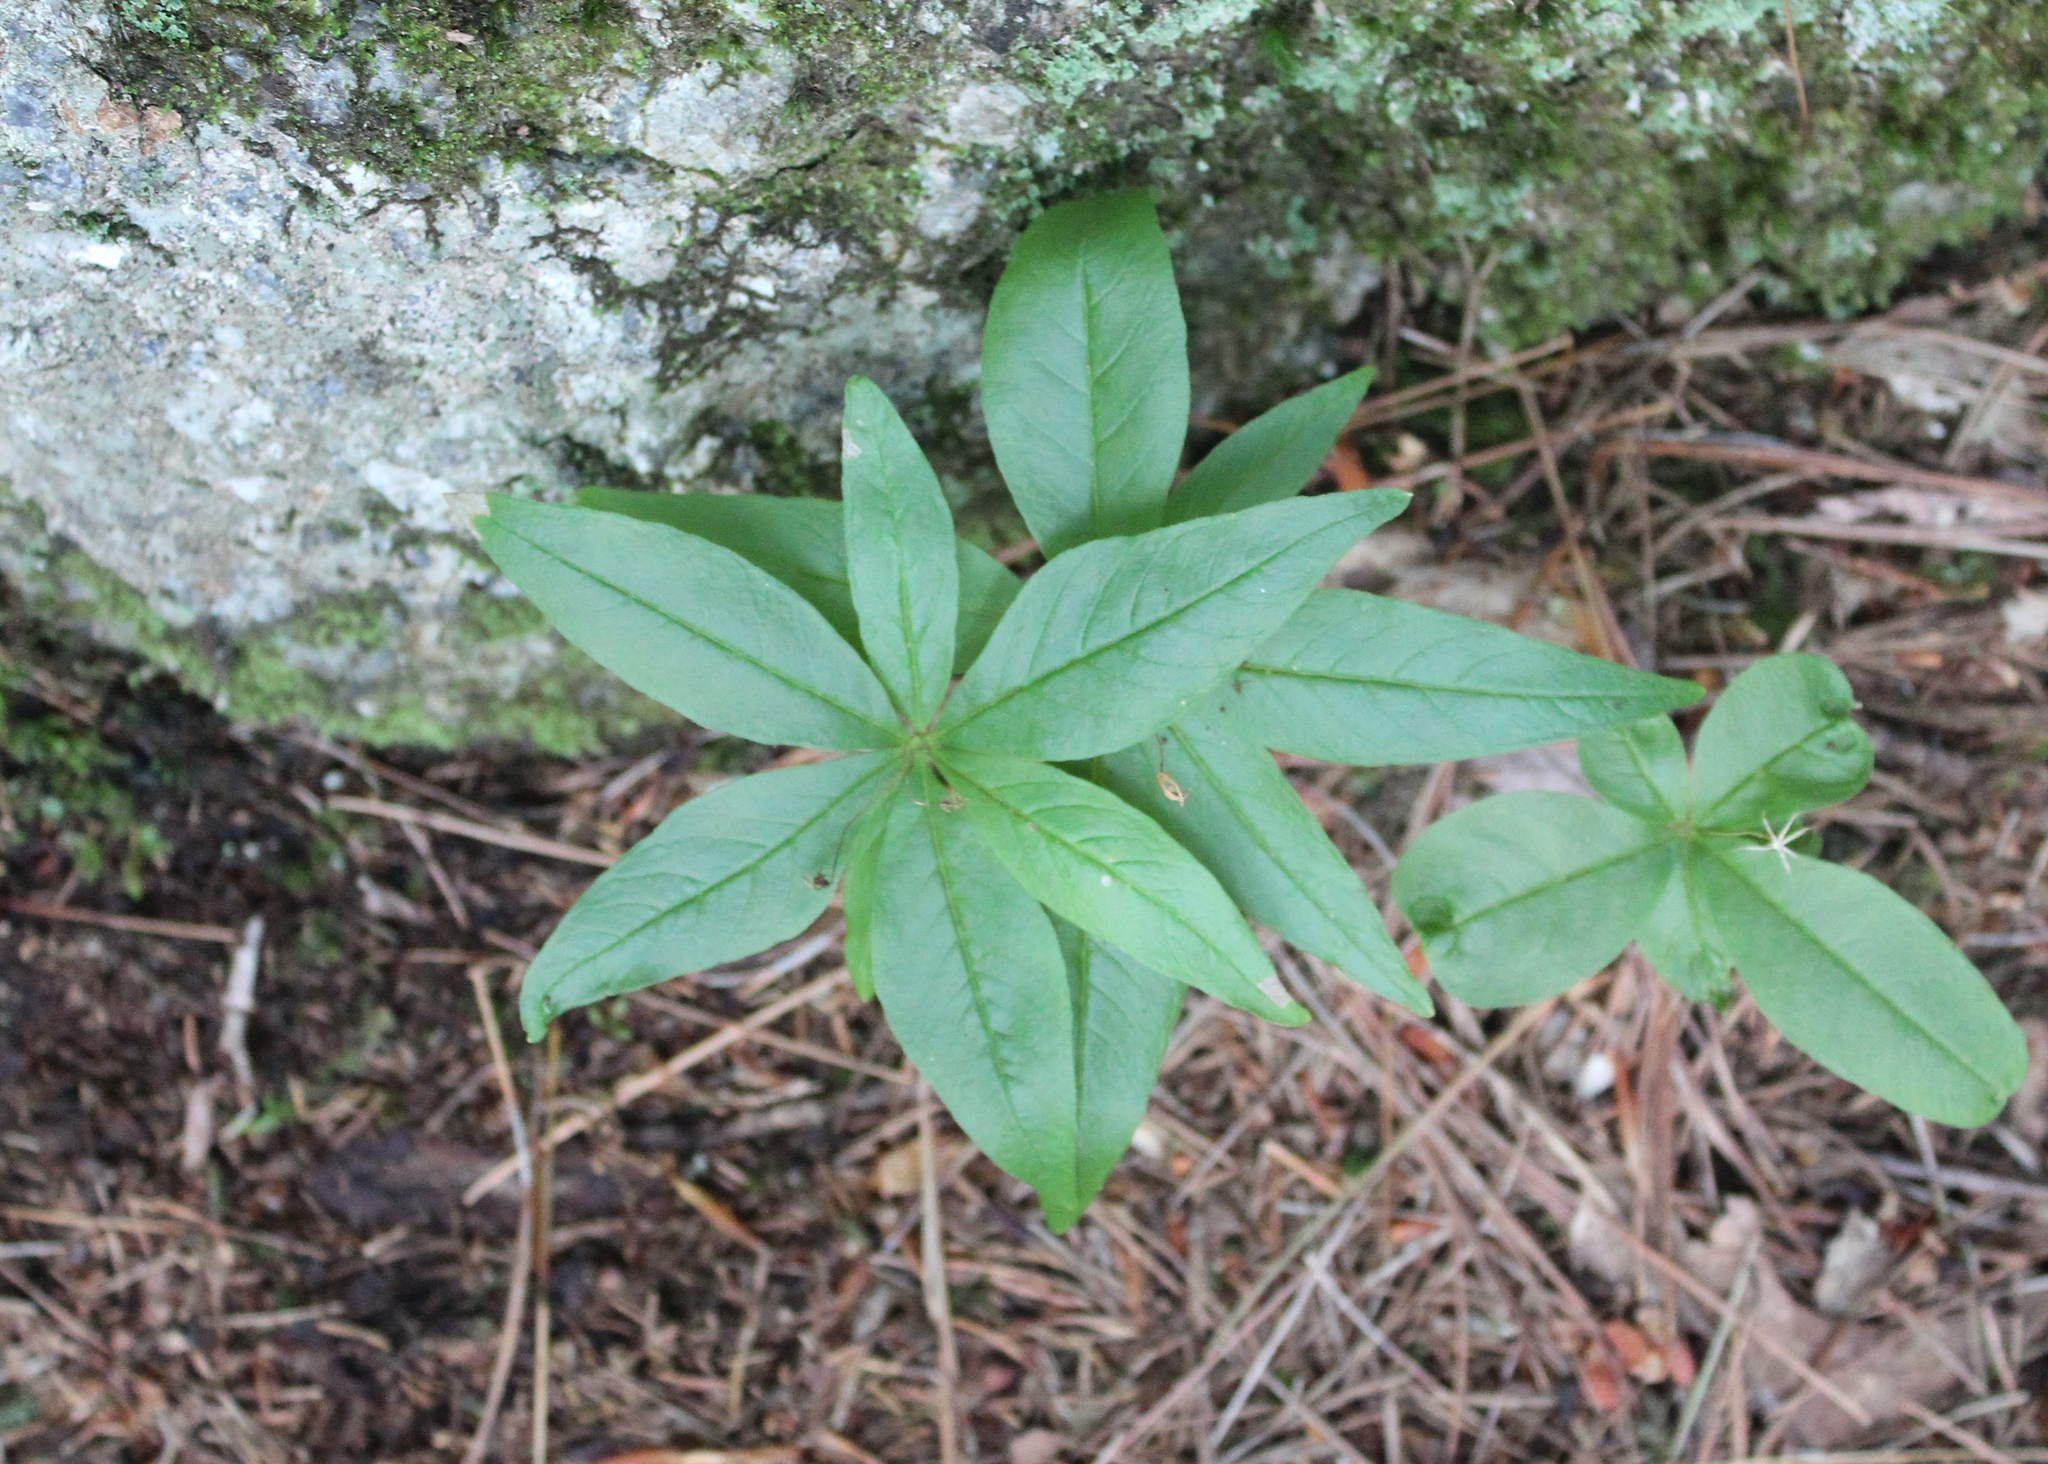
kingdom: Plantae
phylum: Tracheophyta
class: Magnoliopsida
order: Ericales
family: Primulaceae
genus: Lysimachia
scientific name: Lysimachia borealis
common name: American starflower
